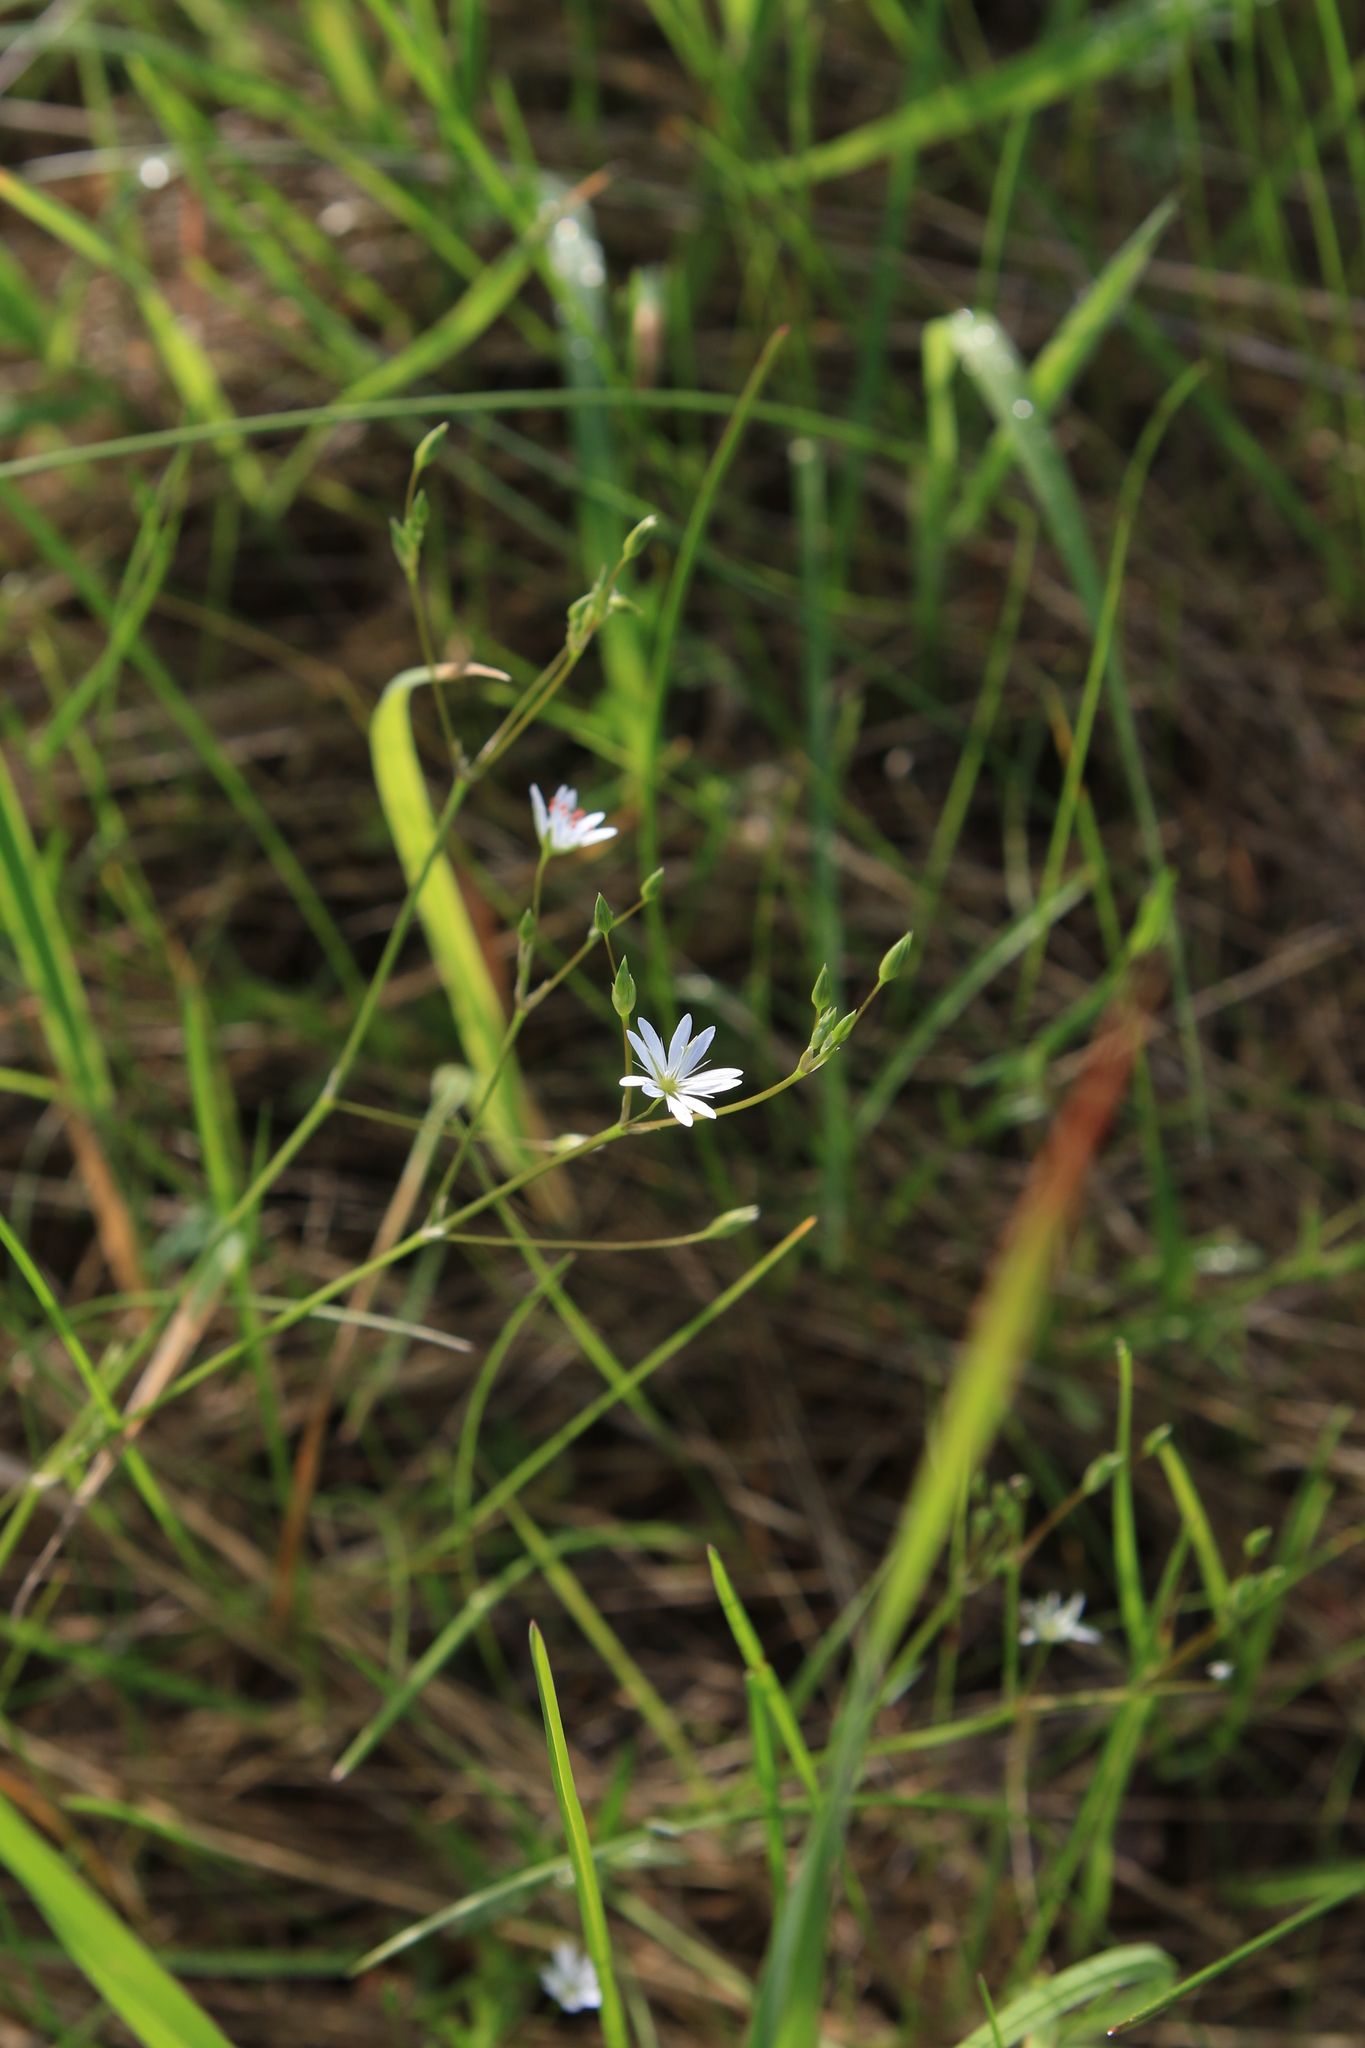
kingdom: Plantae
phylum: Tracheophyta
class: Magnoliopsida
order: Caryophyllales
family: Caryophyllaceae
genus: Stellaria
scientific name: Stellaria graminea
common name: Grass-like starwort
